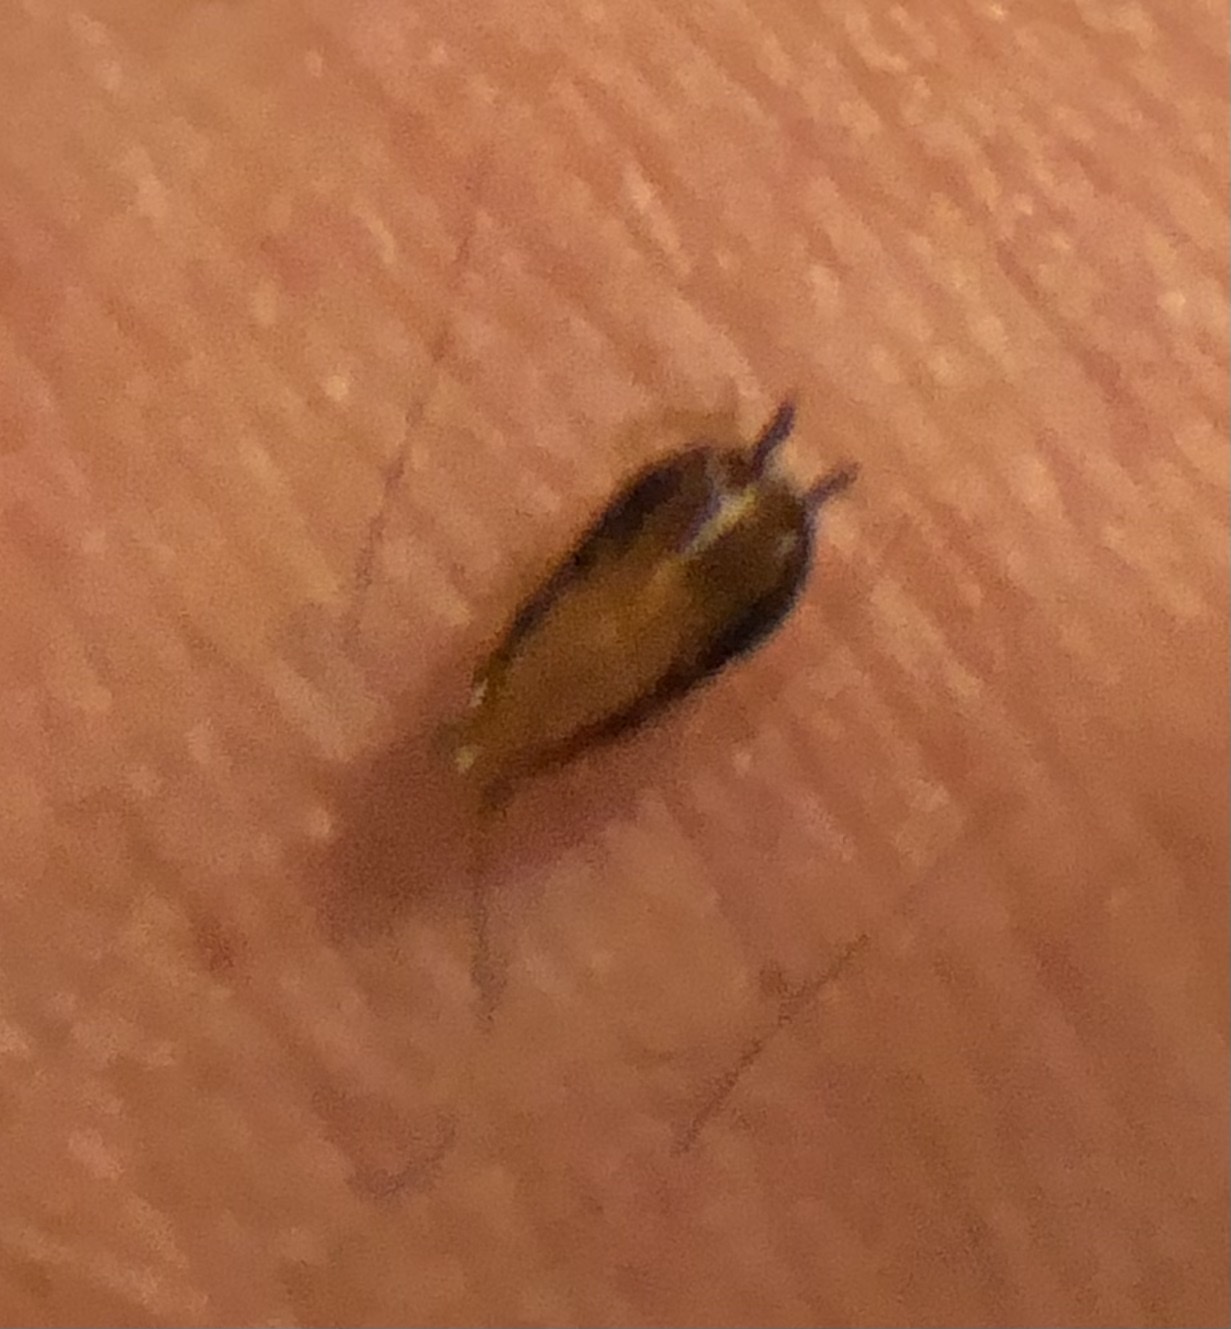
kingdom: Animalia
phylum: Arthropoda
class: Insecta
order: Blattodea
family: Ectobiidae
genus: Chorisoneura
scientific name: Chorisoneura texensis
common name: Small texas cockroach
